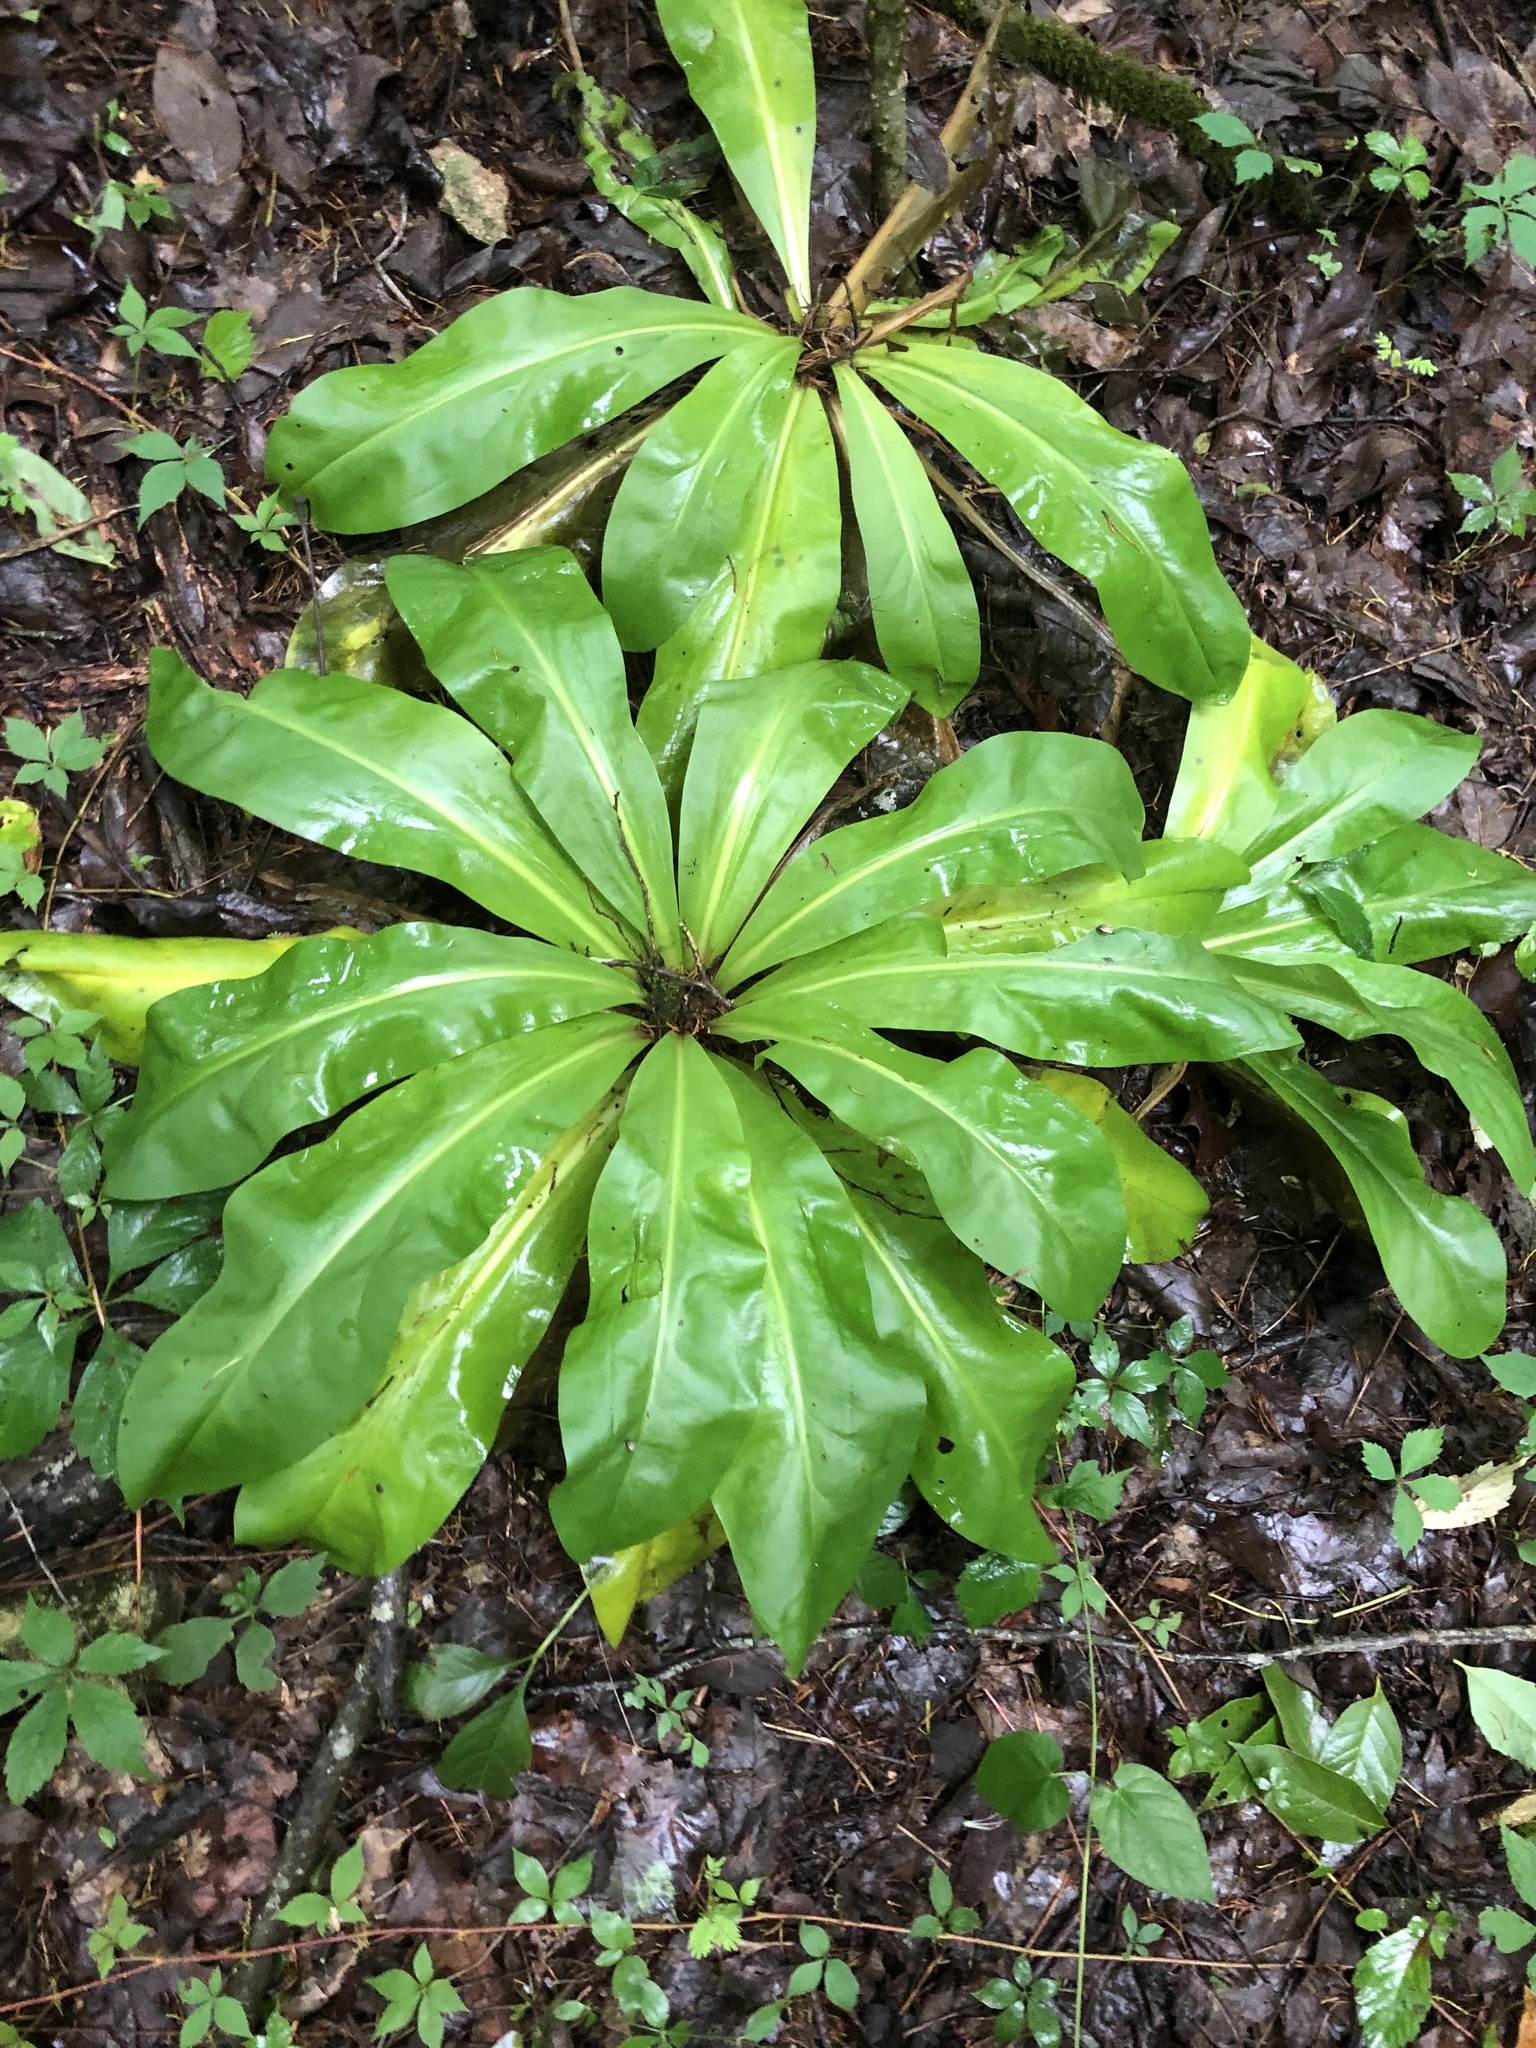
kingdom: Plantae
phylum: Tracheophyta
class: Magnoliopsida
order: Gentianales
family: Gentianaceae
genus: Frasera
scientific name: Frasera caroliniensis
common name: American columbo
